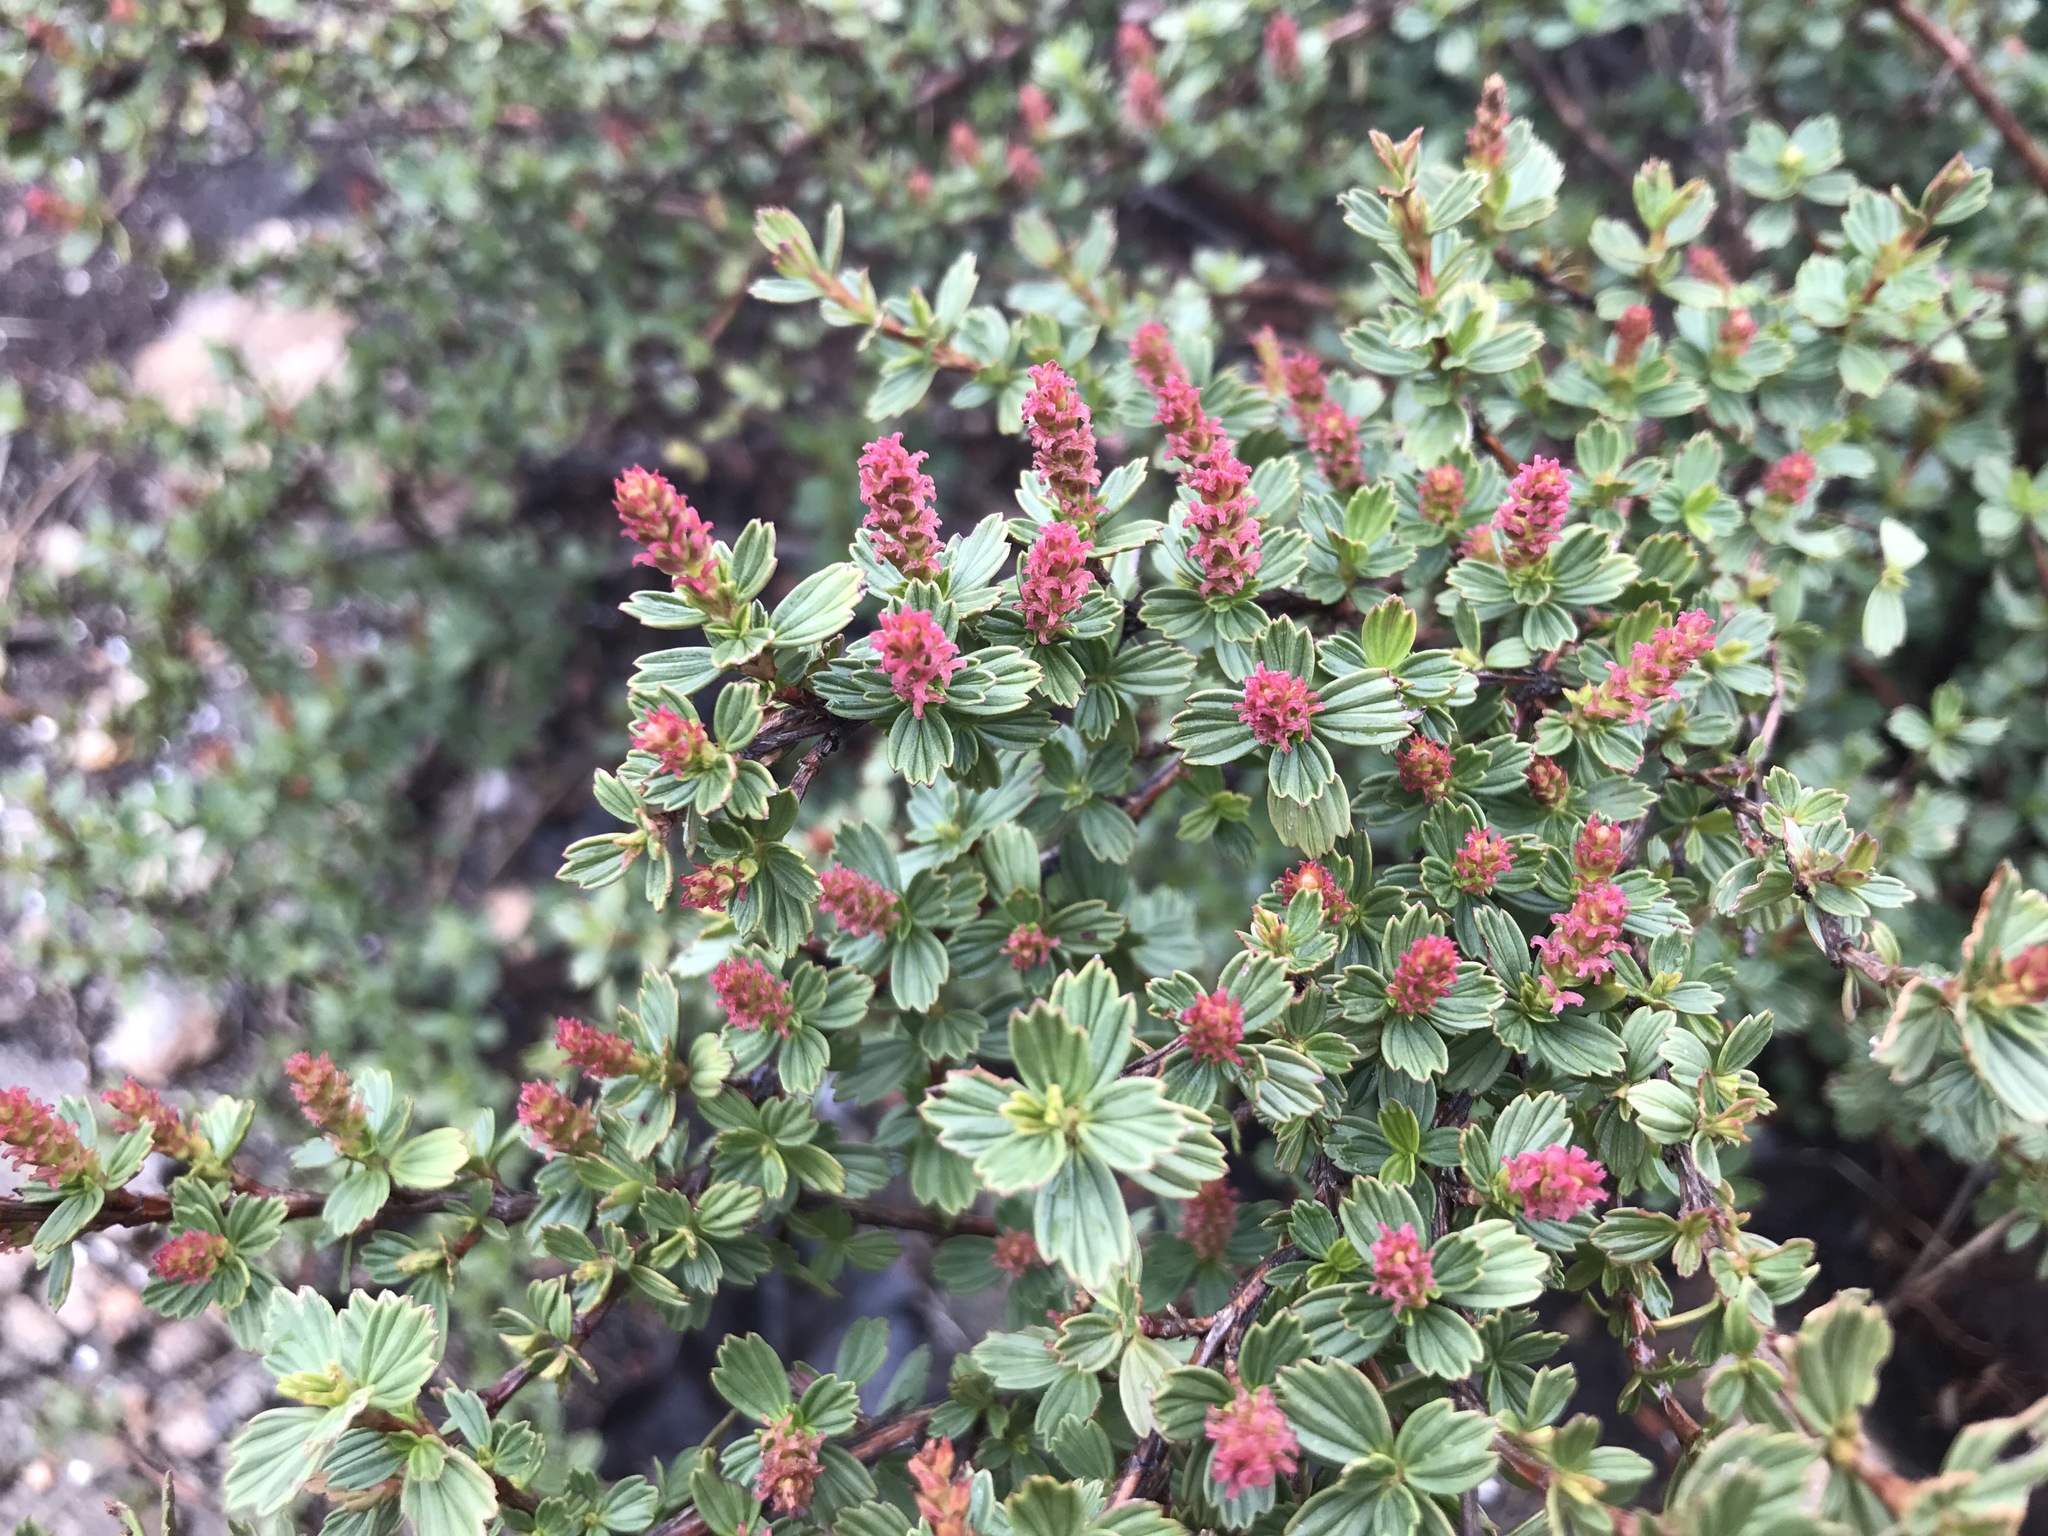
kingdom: Plantae
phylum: Tracheophyta
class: Magnoliopsida
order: Gunnerales
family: Myrothamnaceae
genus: Myrothamnus
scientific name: Myrothamnus flabellifolius
